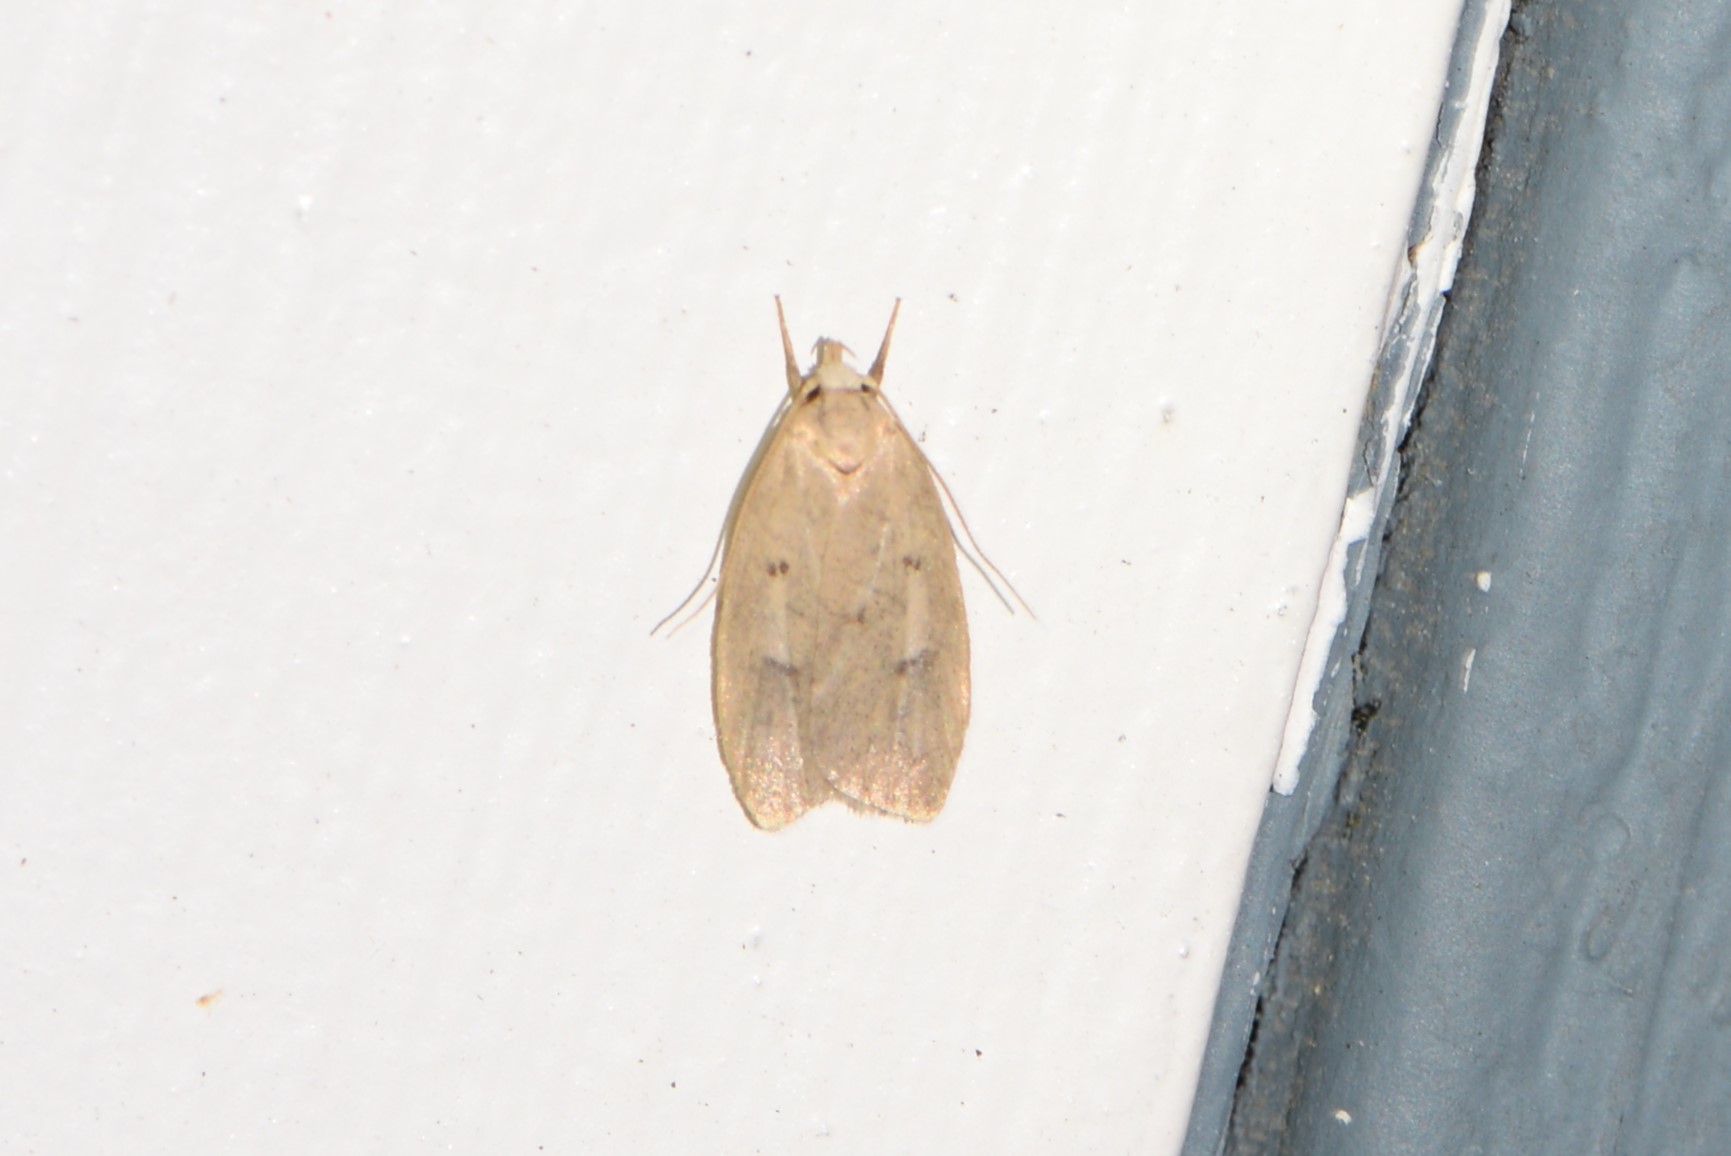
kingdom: Animalia
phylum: Arthropoda
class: Insecta
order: Lepidoptera
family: Peleopodidae
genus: Machimia
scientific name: Machimia tentoriferella
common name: Gold-striped leaftier moth
